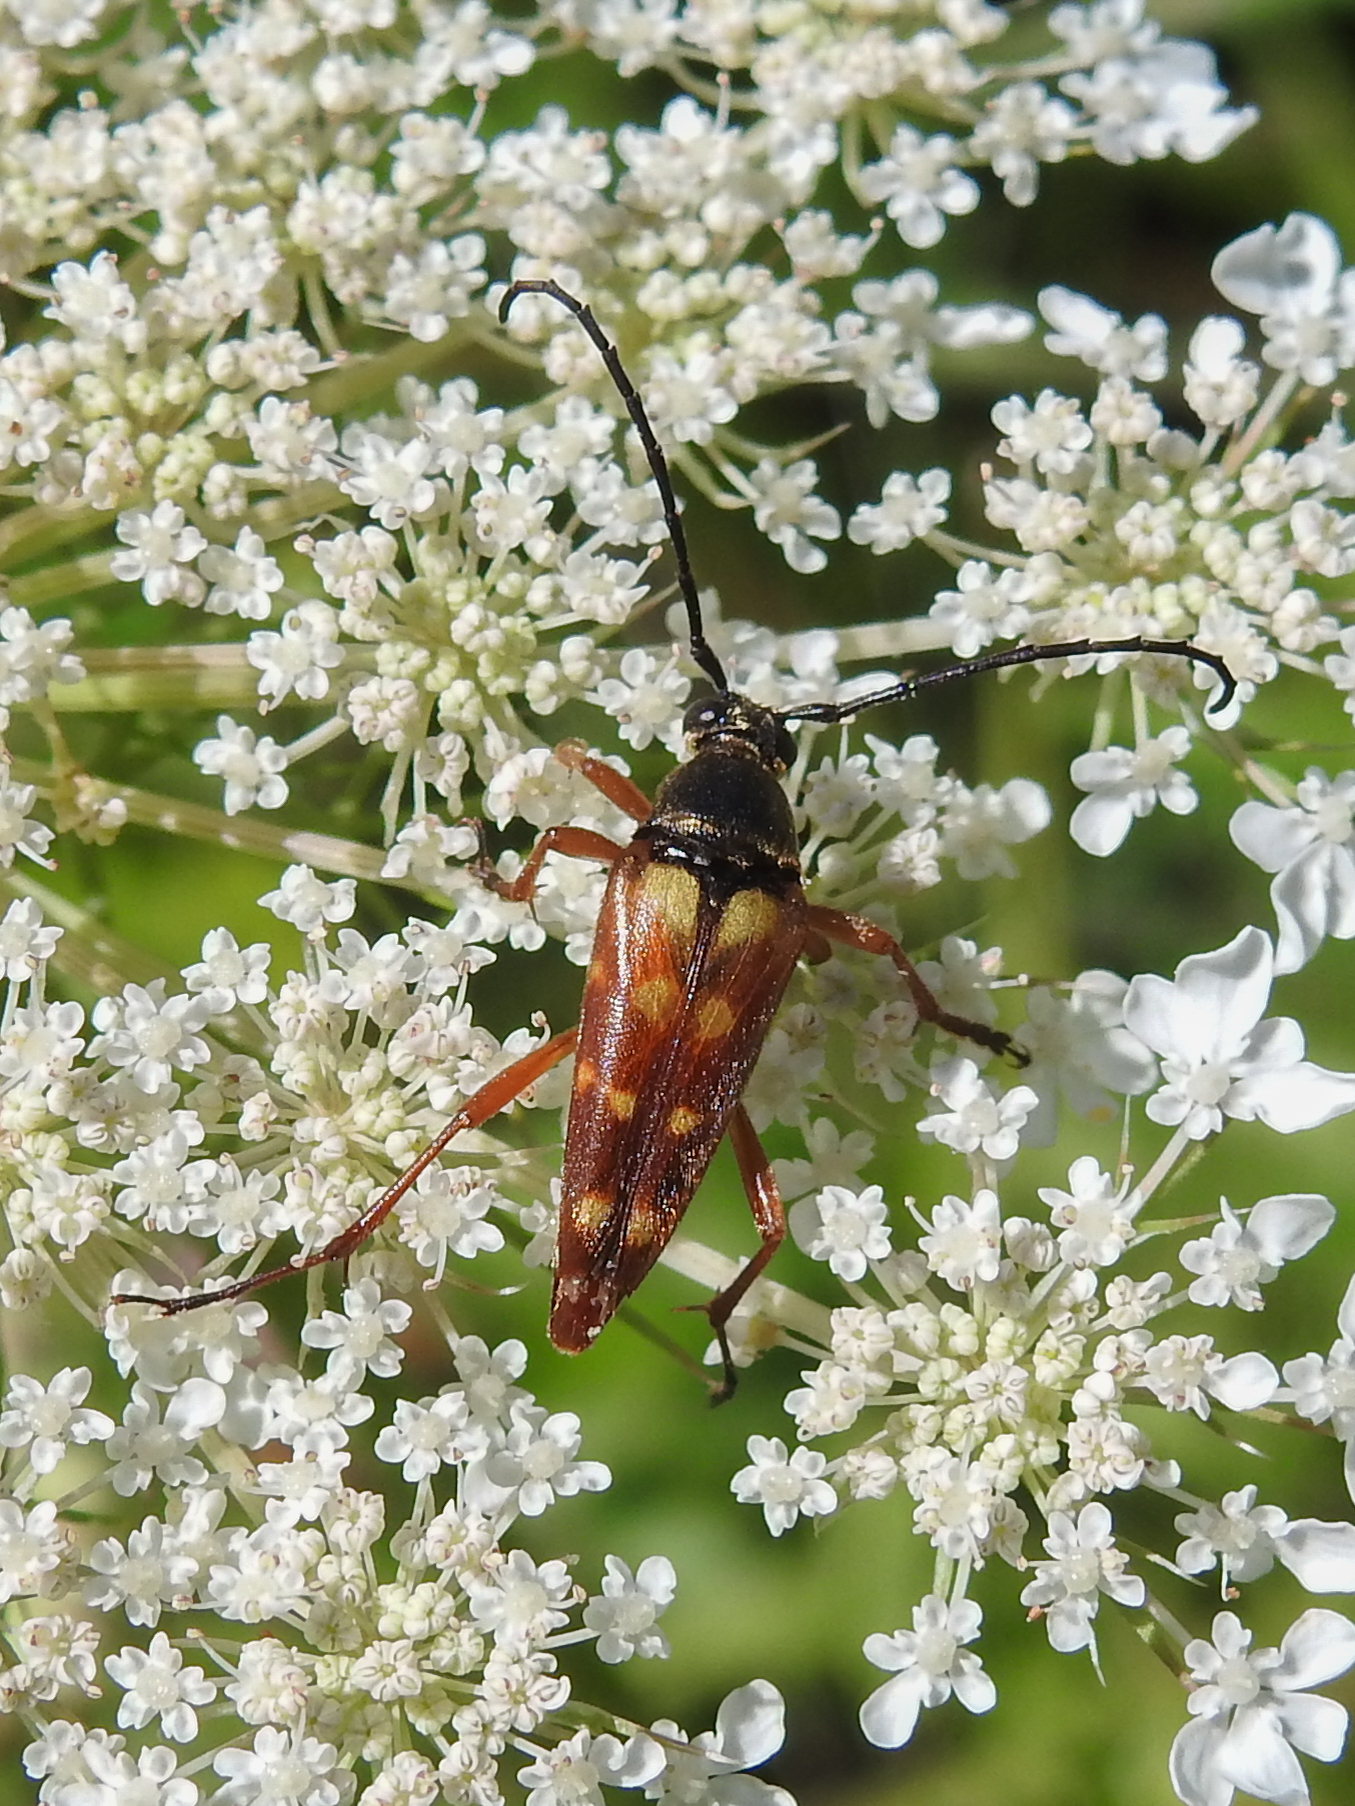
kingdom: Animalia
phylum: Arthropoda
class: Insecta
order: Coleoptera
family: Cerambycidae
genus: Typocerus
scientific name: Typocerus velutinus
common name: Banded longhorn beetle
